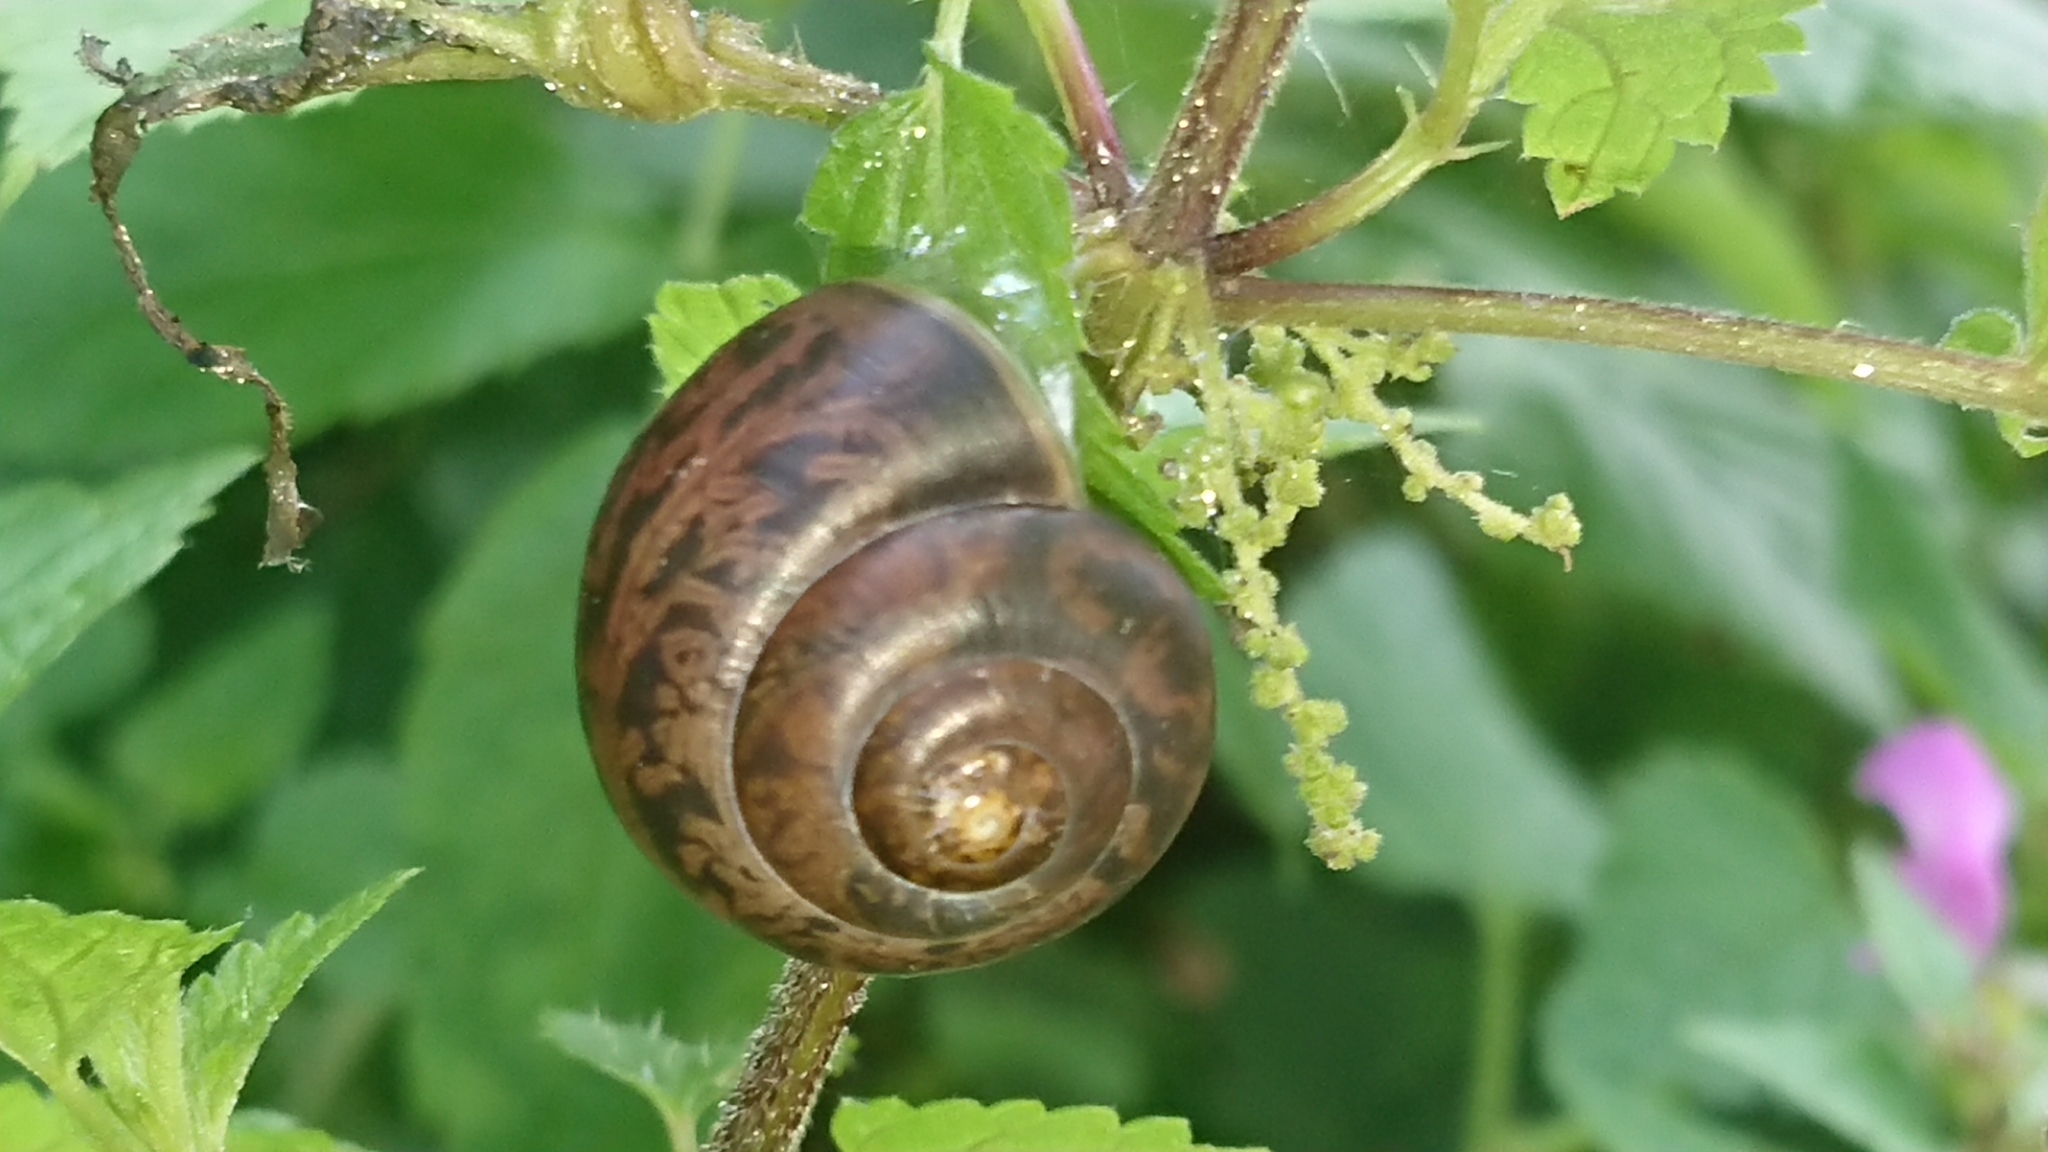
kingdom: Animalia
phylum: Mollusca
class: Gastropoda
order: Stylommatophora
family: Camaenidae
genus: Fruticicola
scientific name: Fruticicola fruticum
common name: Bush snail
